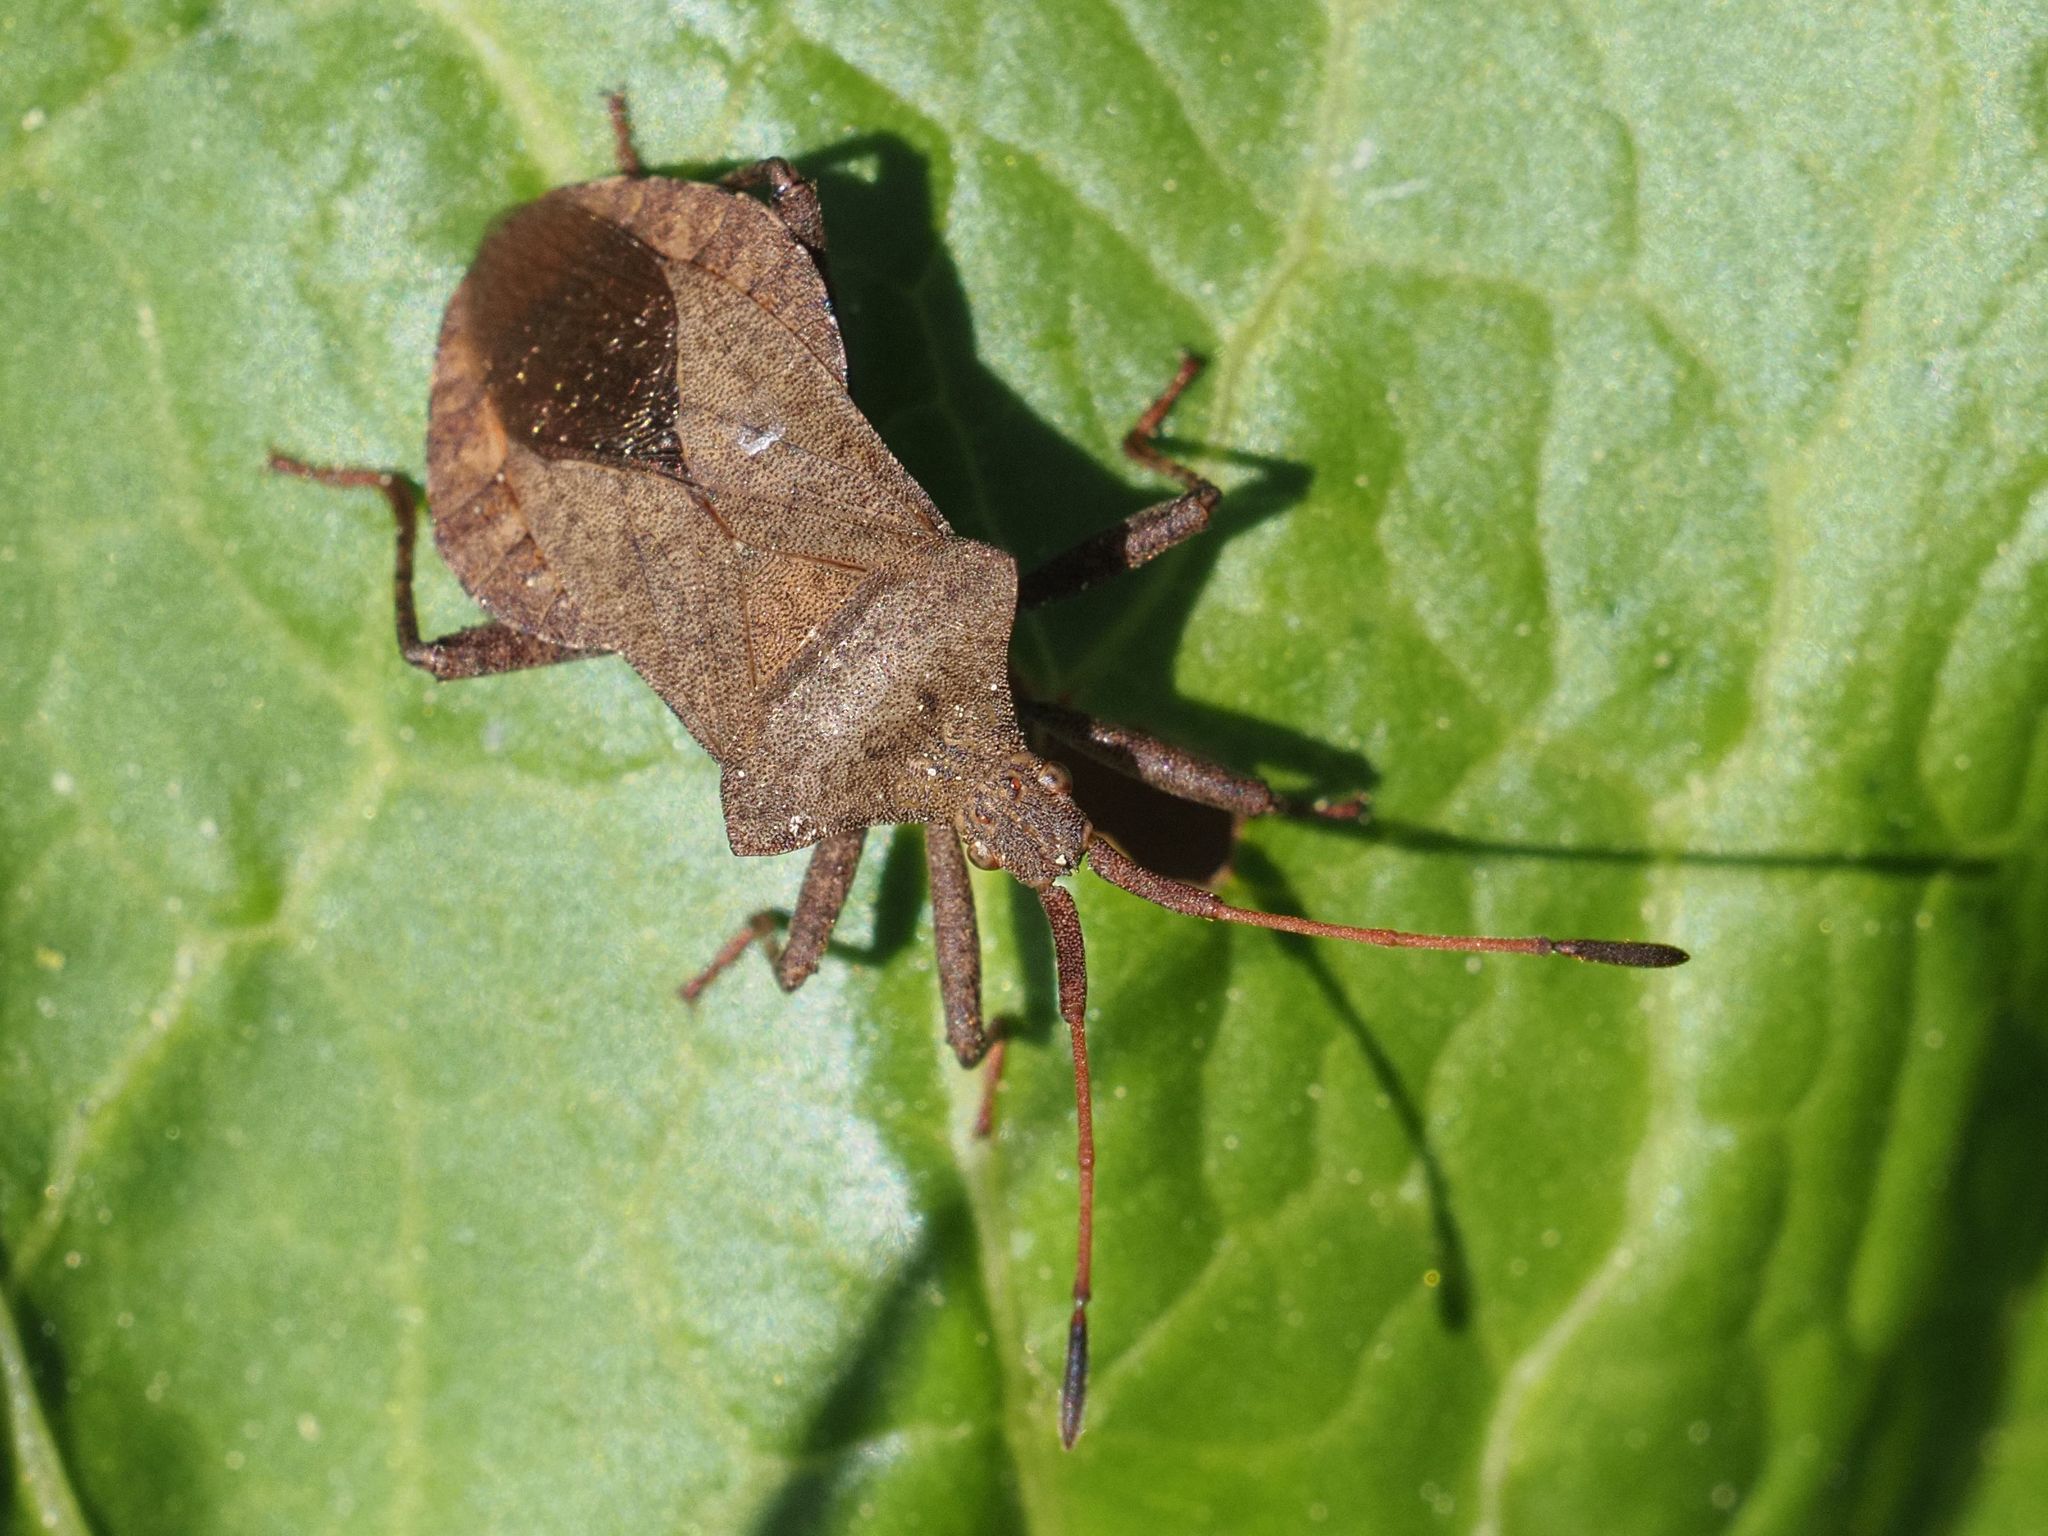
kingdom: Animalia
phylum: Arthropoda
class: Insecta
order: Hemiptera
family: Coreidae
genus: Coreus
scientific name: Coreus marginatus
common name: Dock bug
